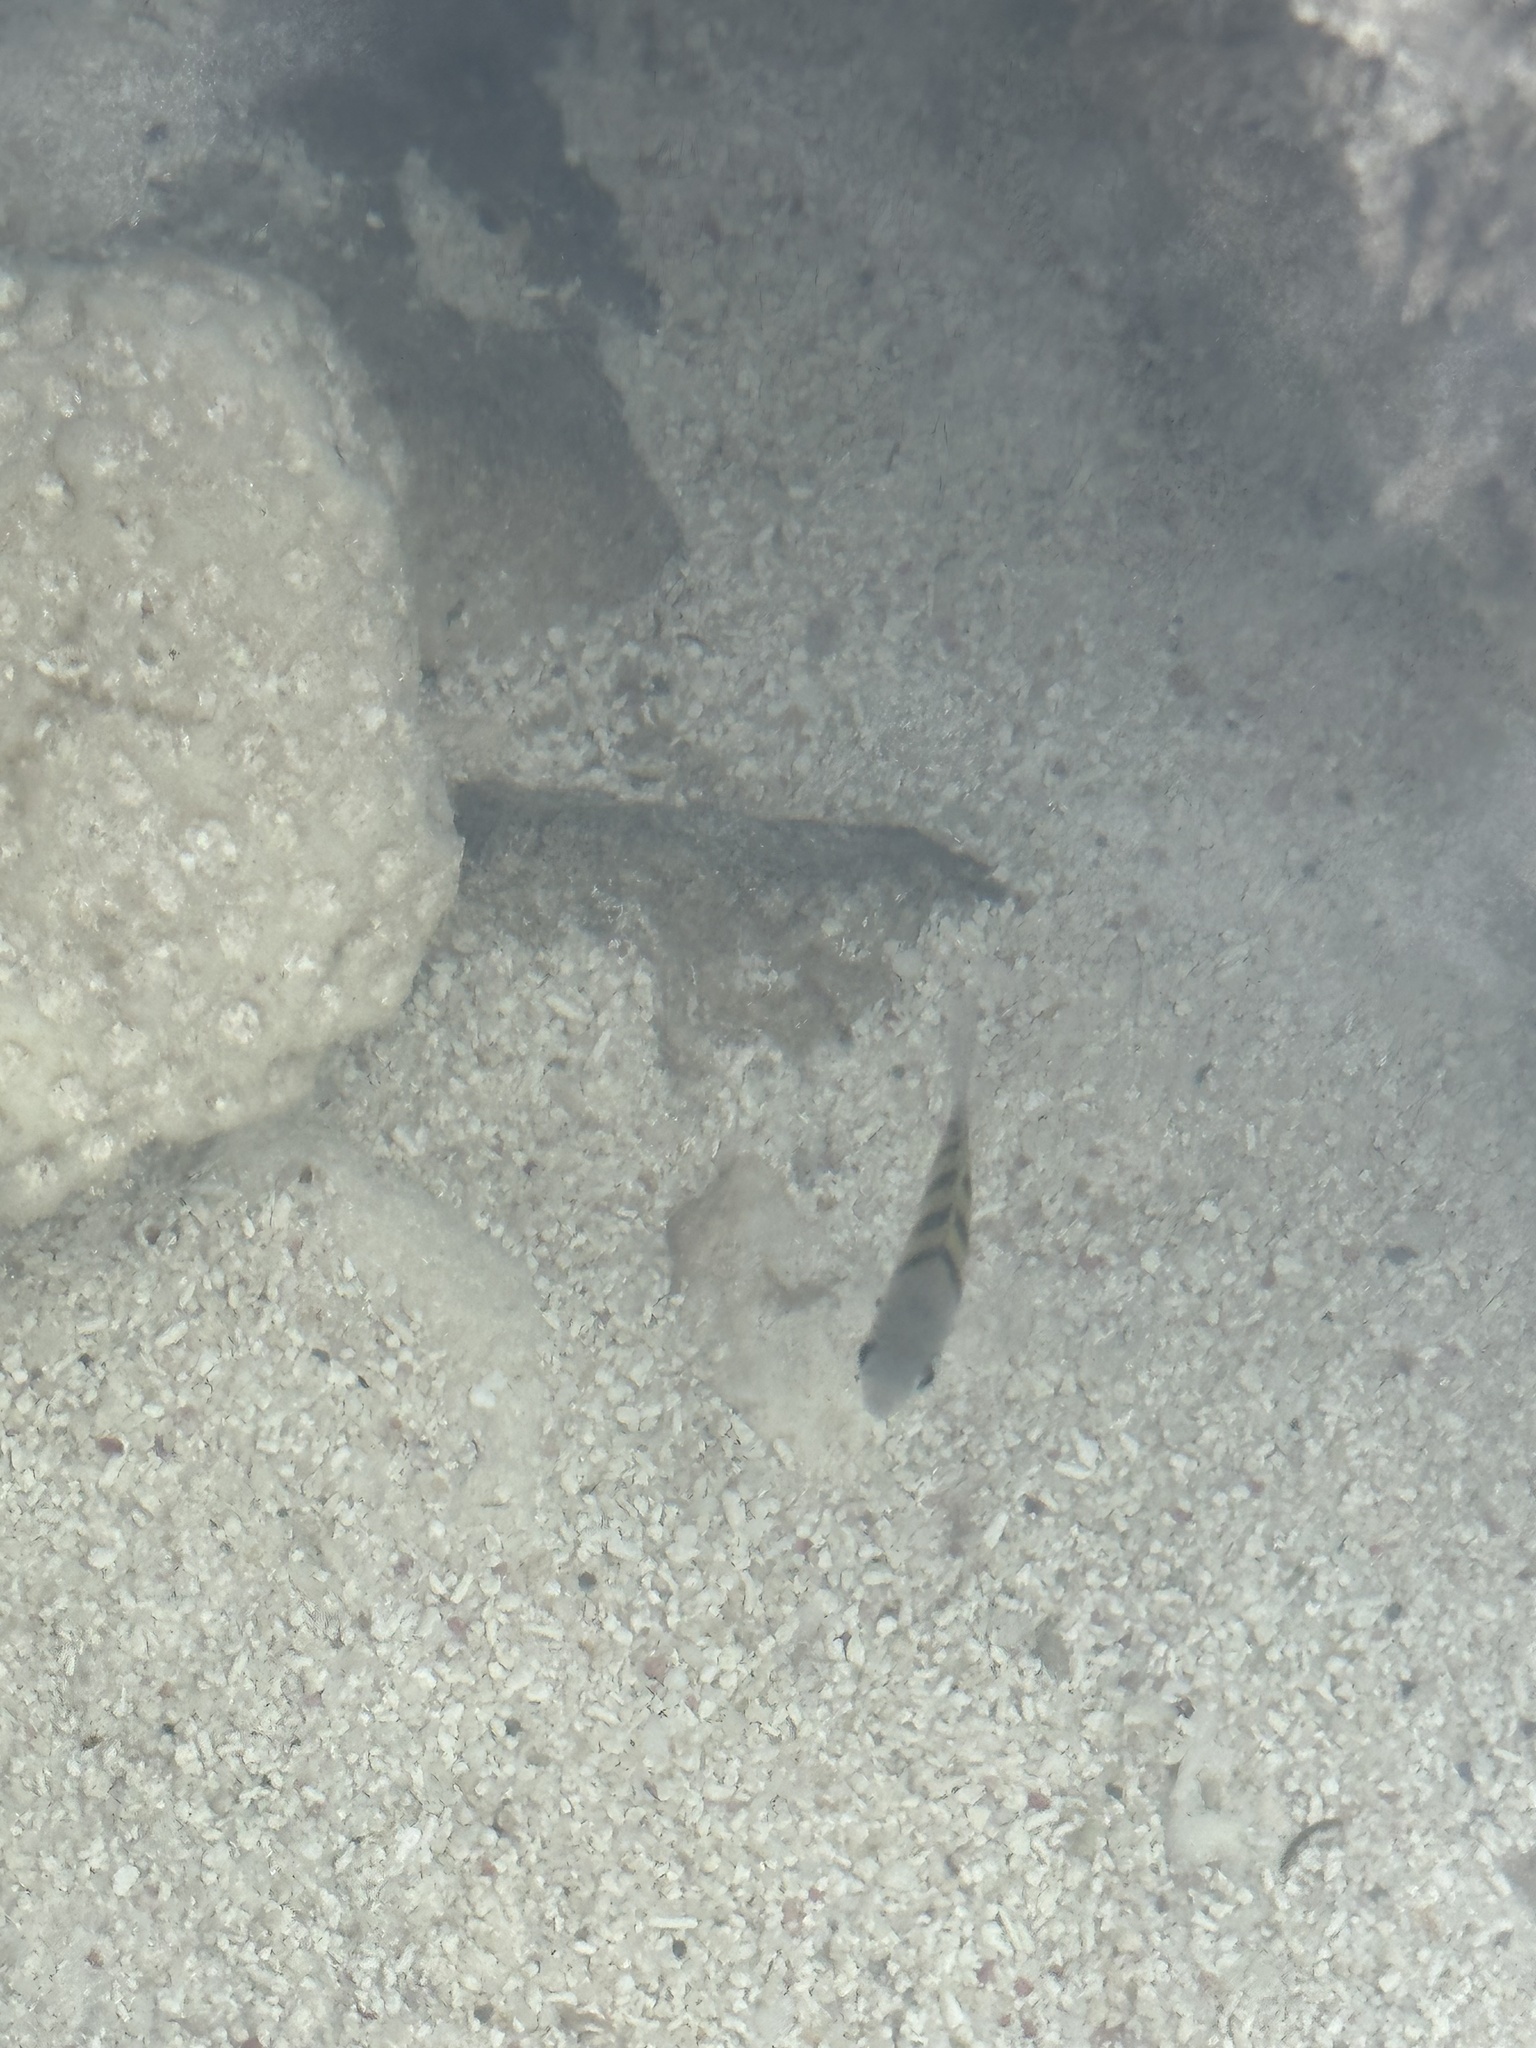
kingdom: Animalia
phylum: Chordata
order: Perciformes
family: Pomacentridae
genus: Abudefduf
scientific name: Abudefduf saxatilis
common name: Sergeant major
